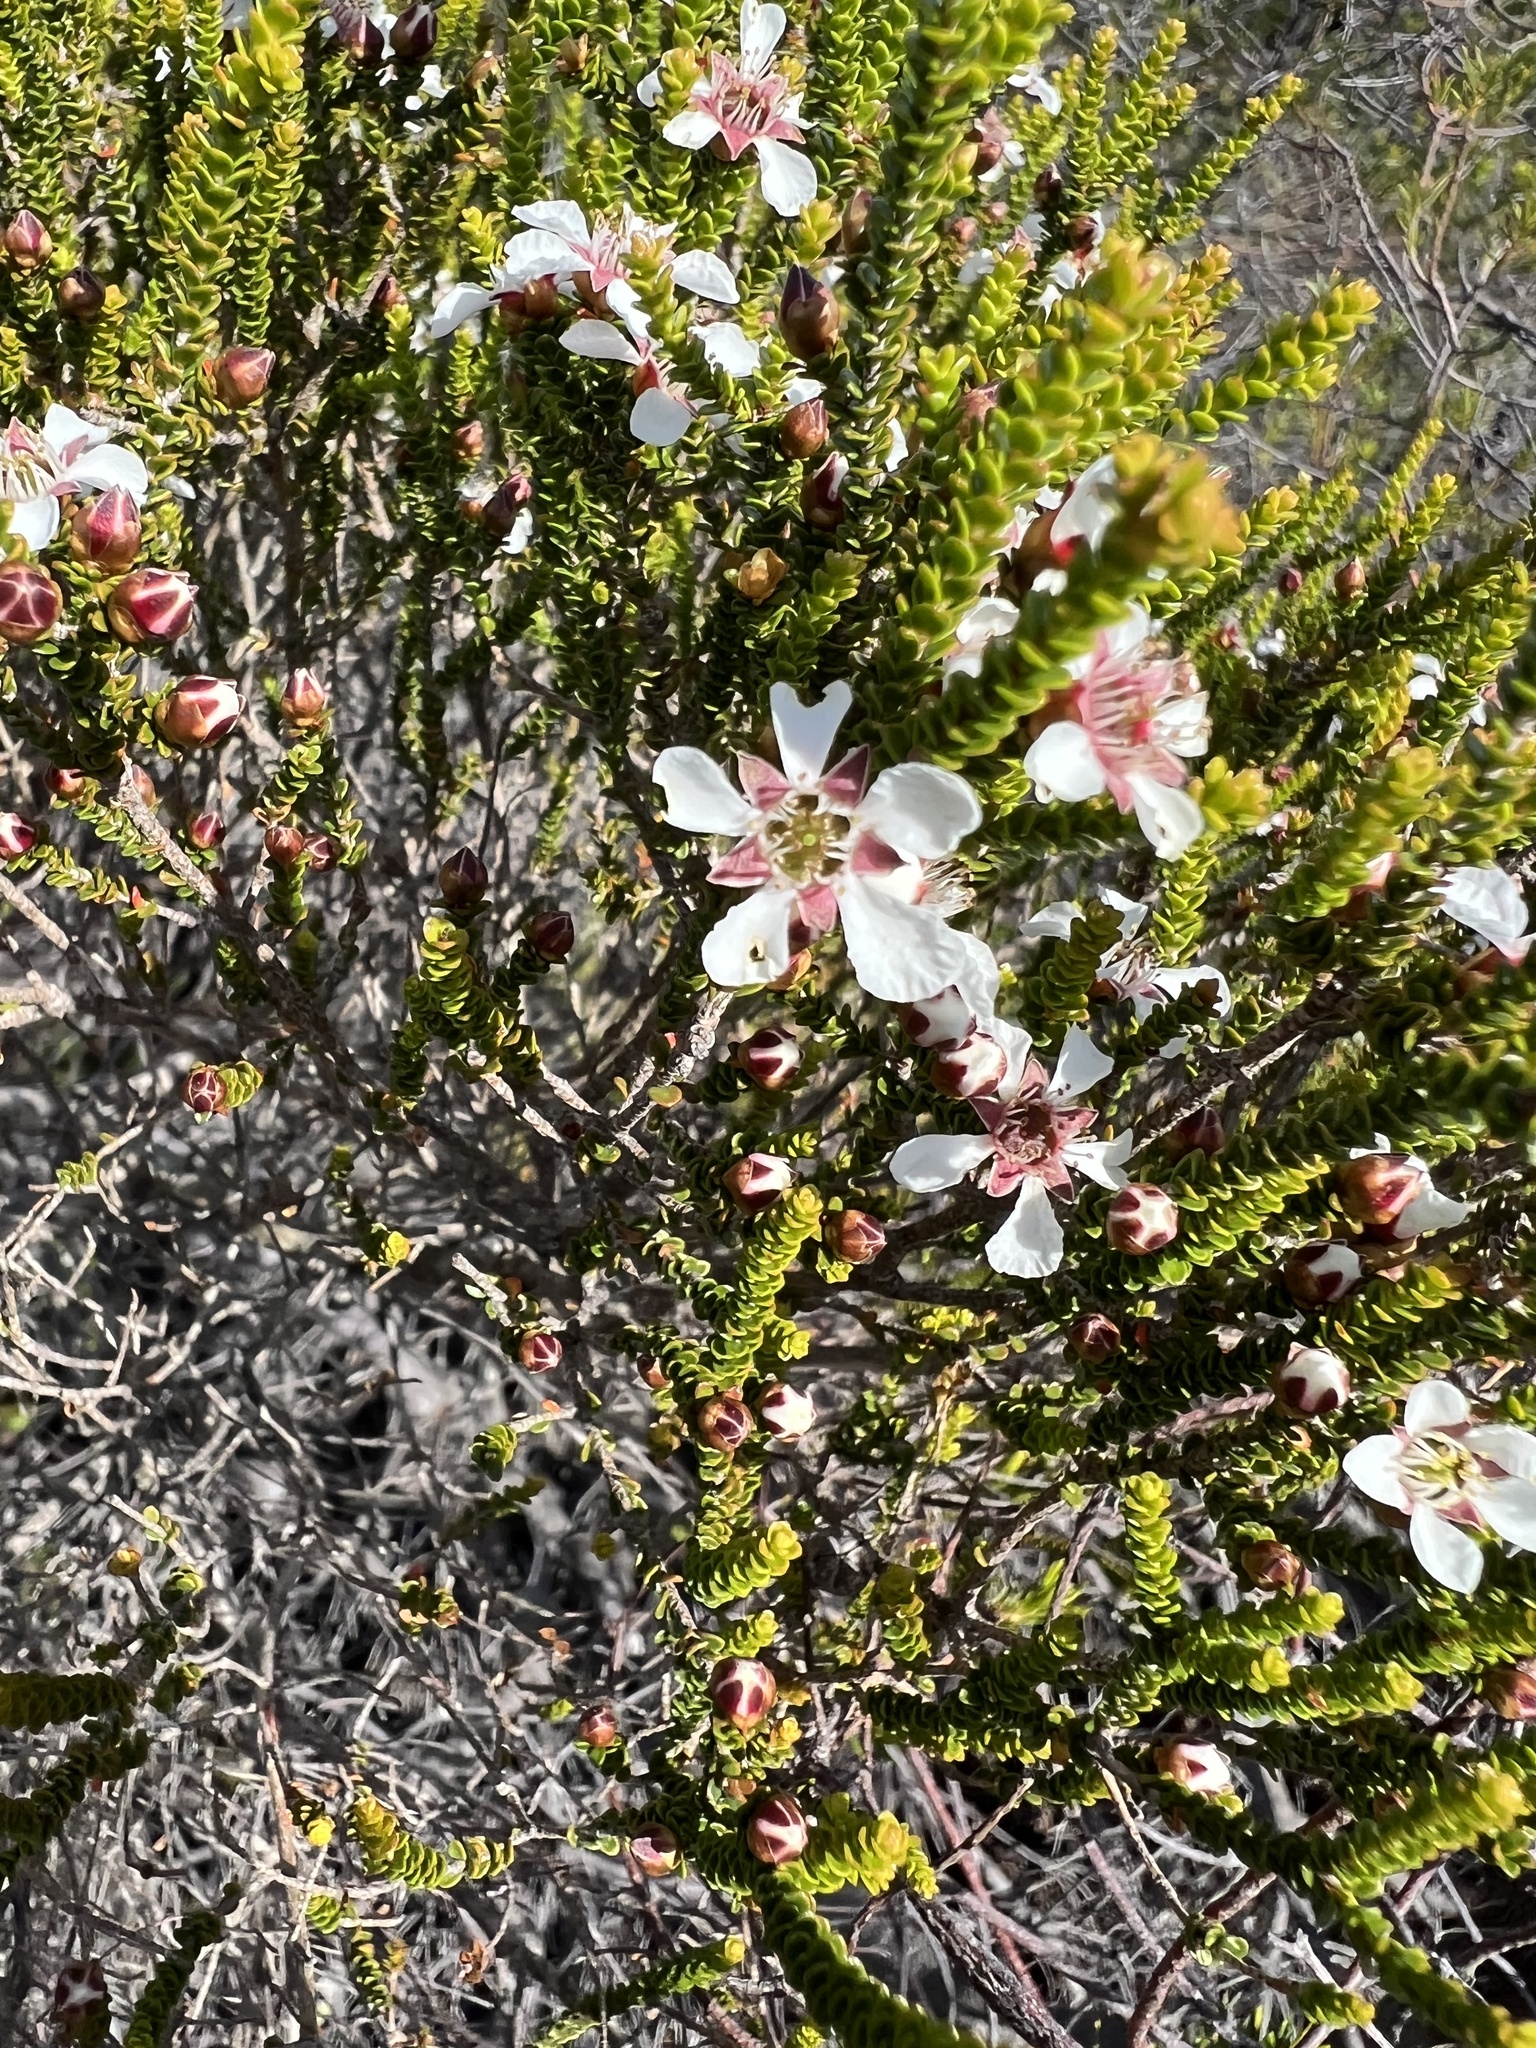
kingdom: Plantae
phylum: Tracheophyta
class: Magnoliopsida
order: Myrtales
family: Myrtaceae
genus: Leptospermum
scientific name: Leptospermum epacridoideum
